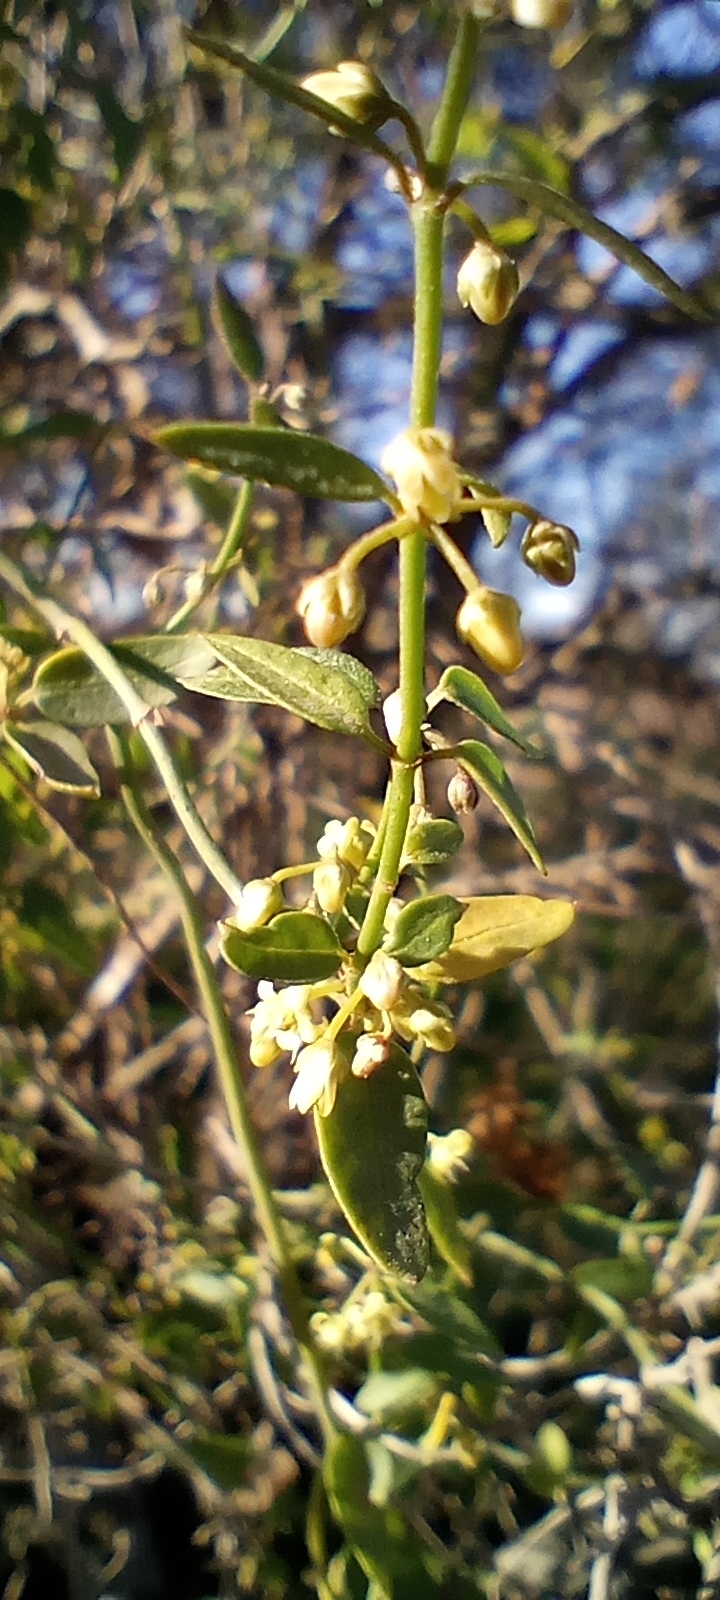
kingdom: Plantae
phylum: Tracheophyta
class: Magnoliopsida
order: Gentianales
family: Apocynaceae
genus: Orthosia
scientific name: Orthosia virgata
